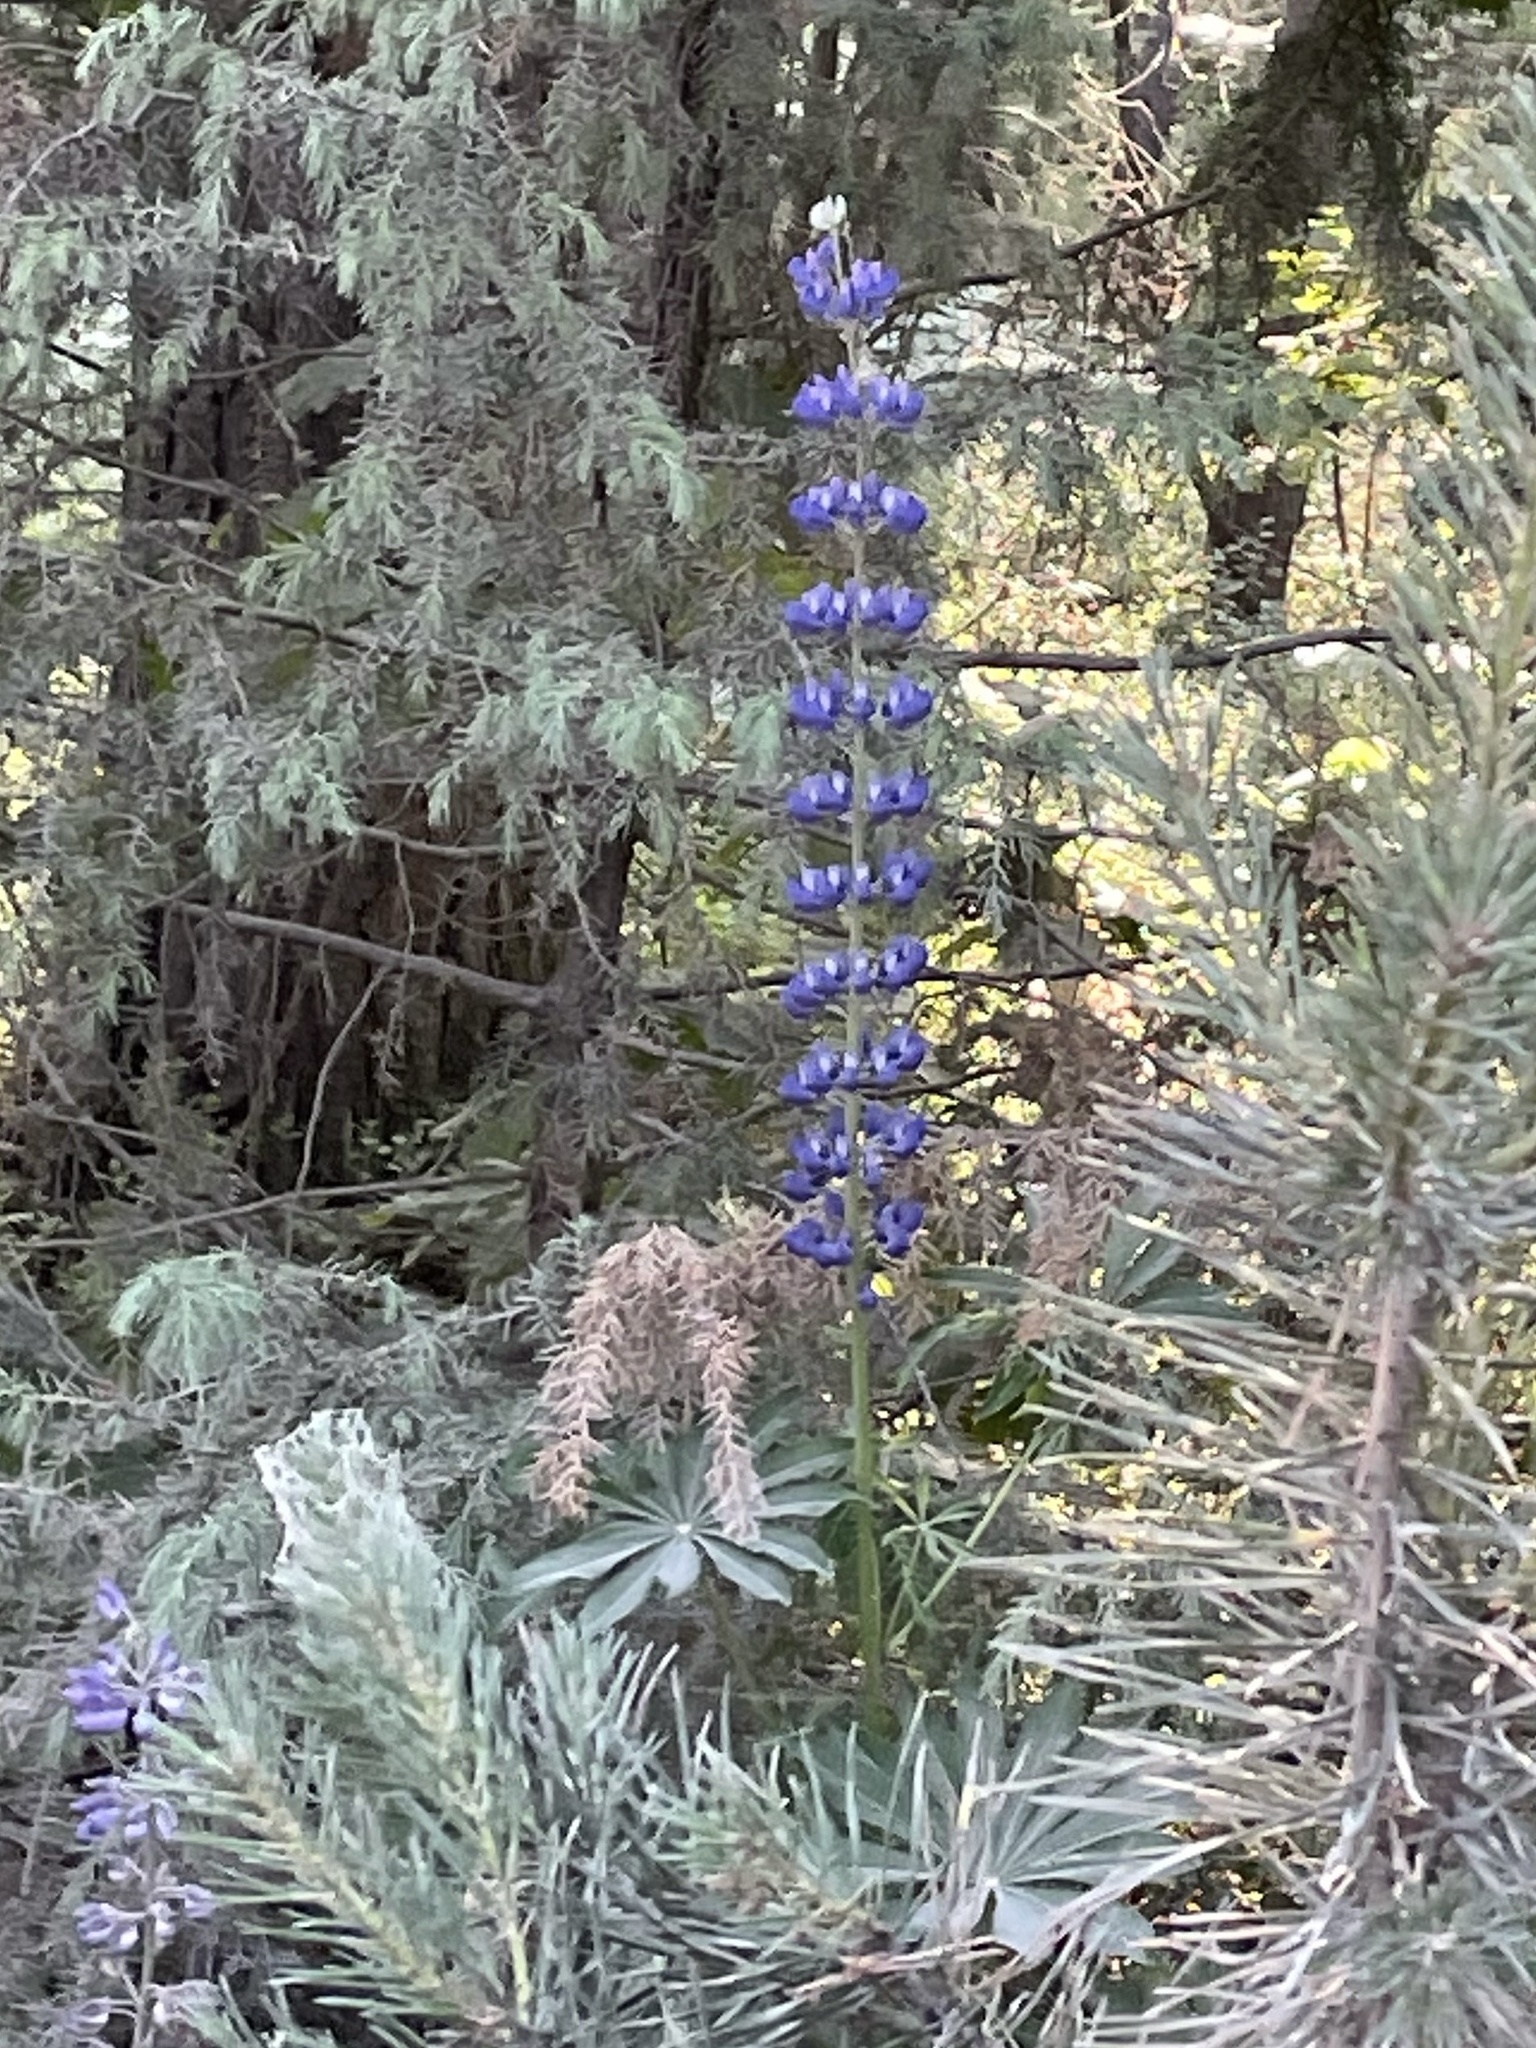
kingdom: Plantae
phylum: Tracheophyta
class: Magnoliopsida
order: Fabales
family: Fabaceae
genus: Lupinus
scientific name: Lupinus polyphyllus
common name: Garden lupin
